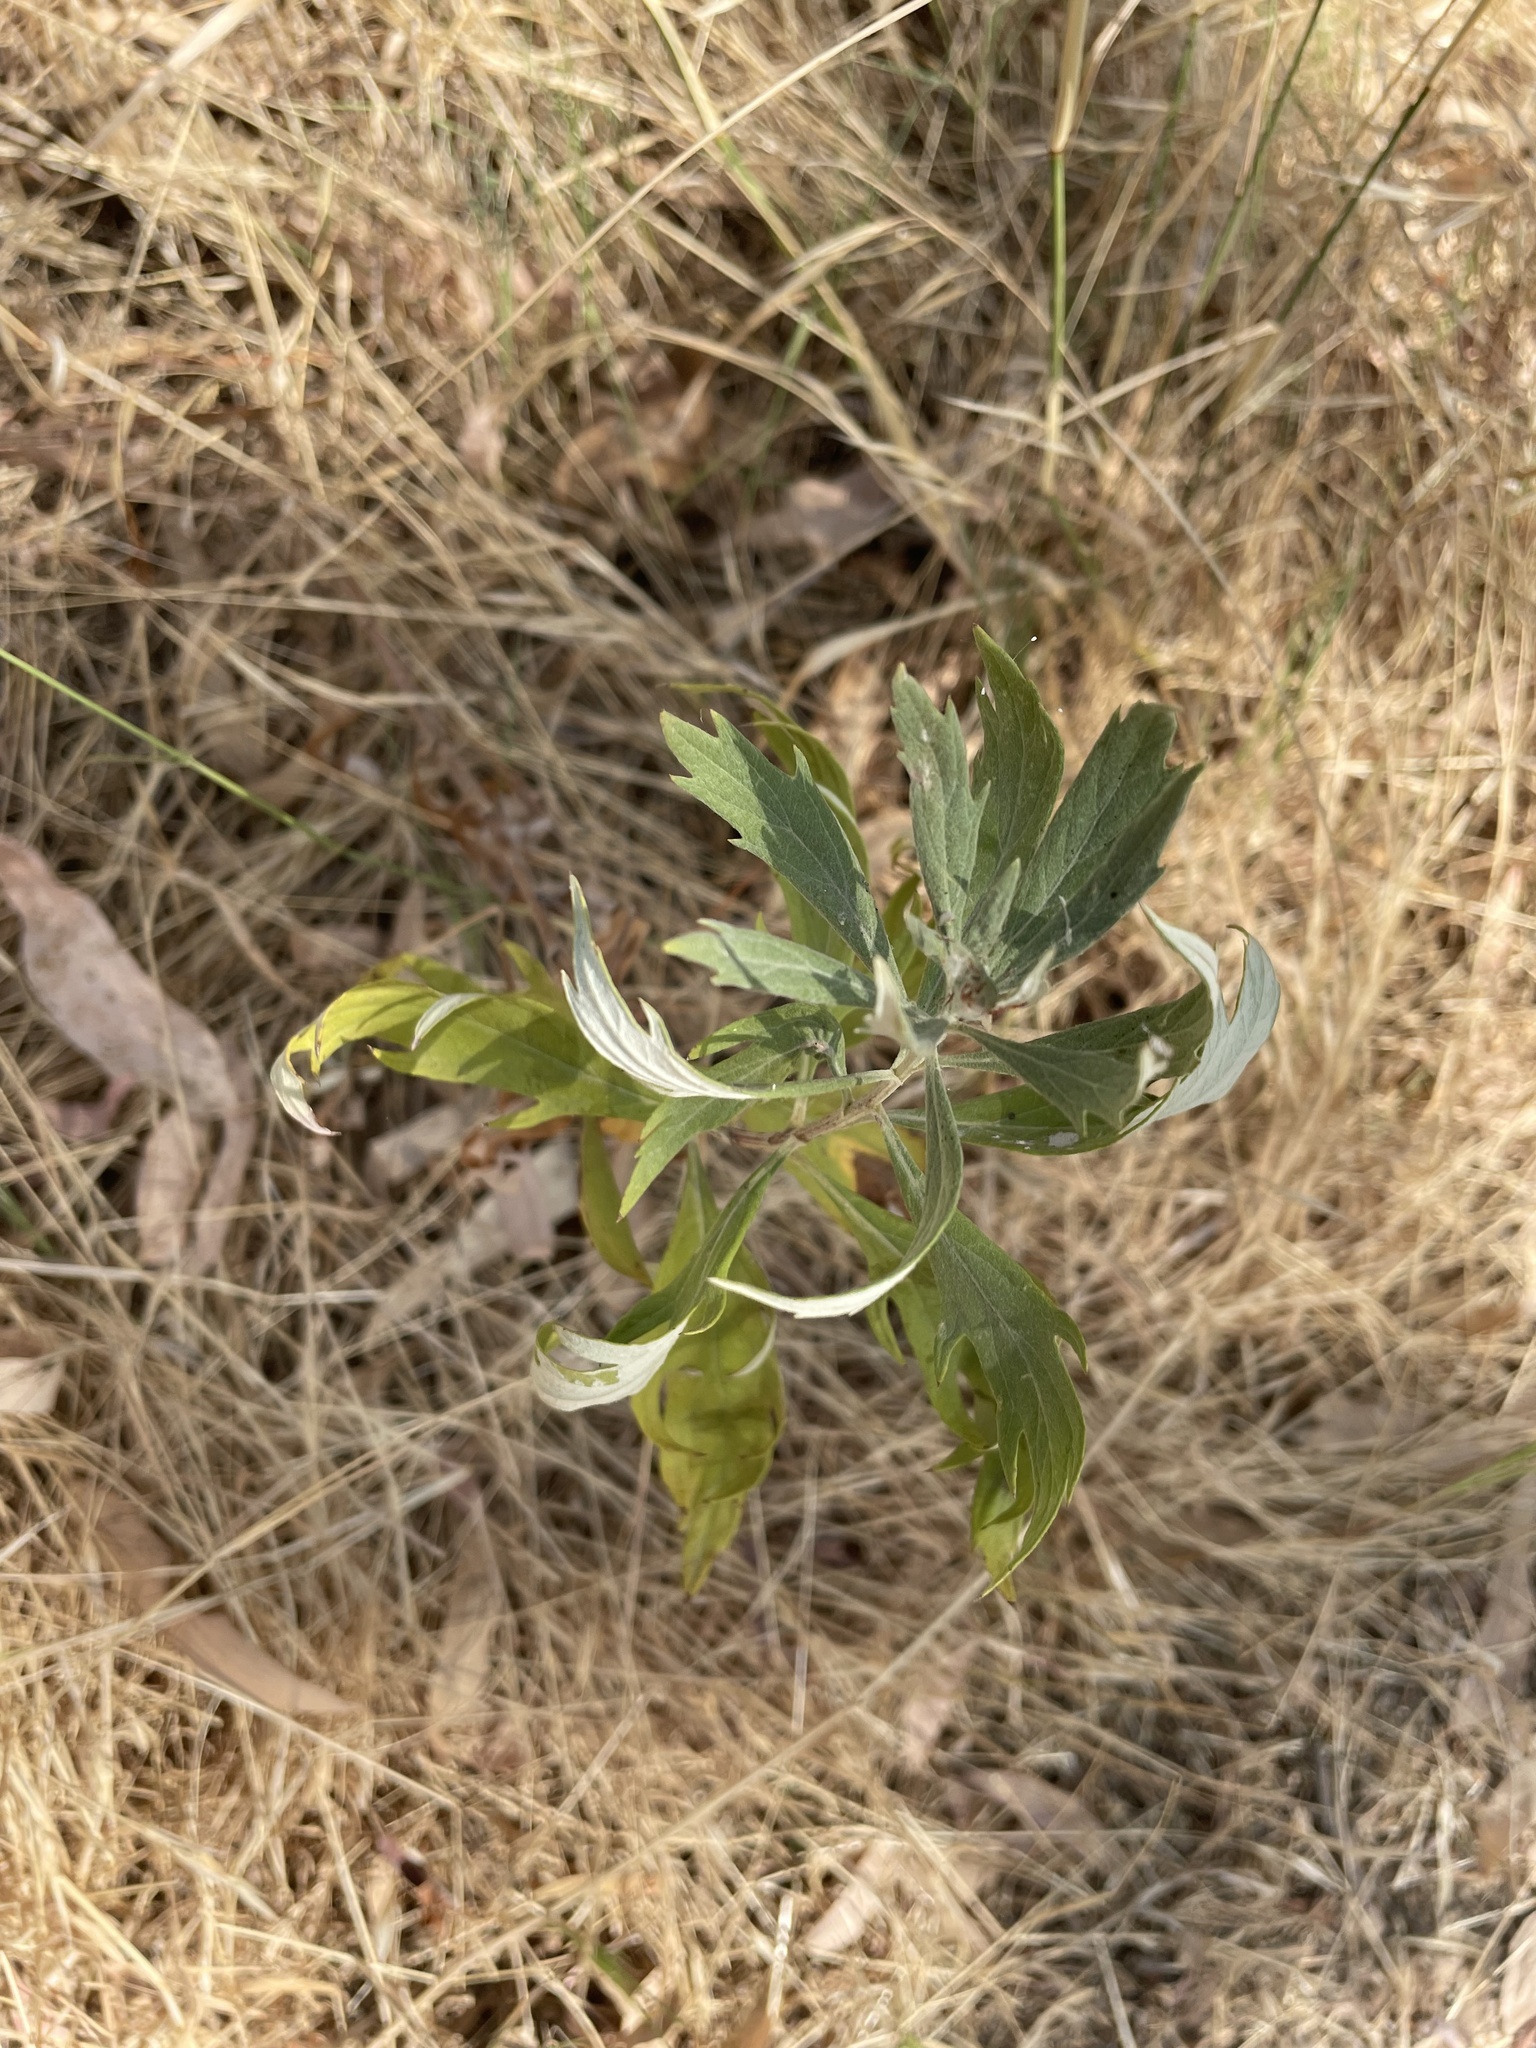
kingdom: Plantae
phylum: Tracheophyta
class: Magnoliopsida
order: Asterales
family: Asteraceae
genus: Artemisia
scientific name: Artemisia douglasiana
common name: Northwest mugwort
